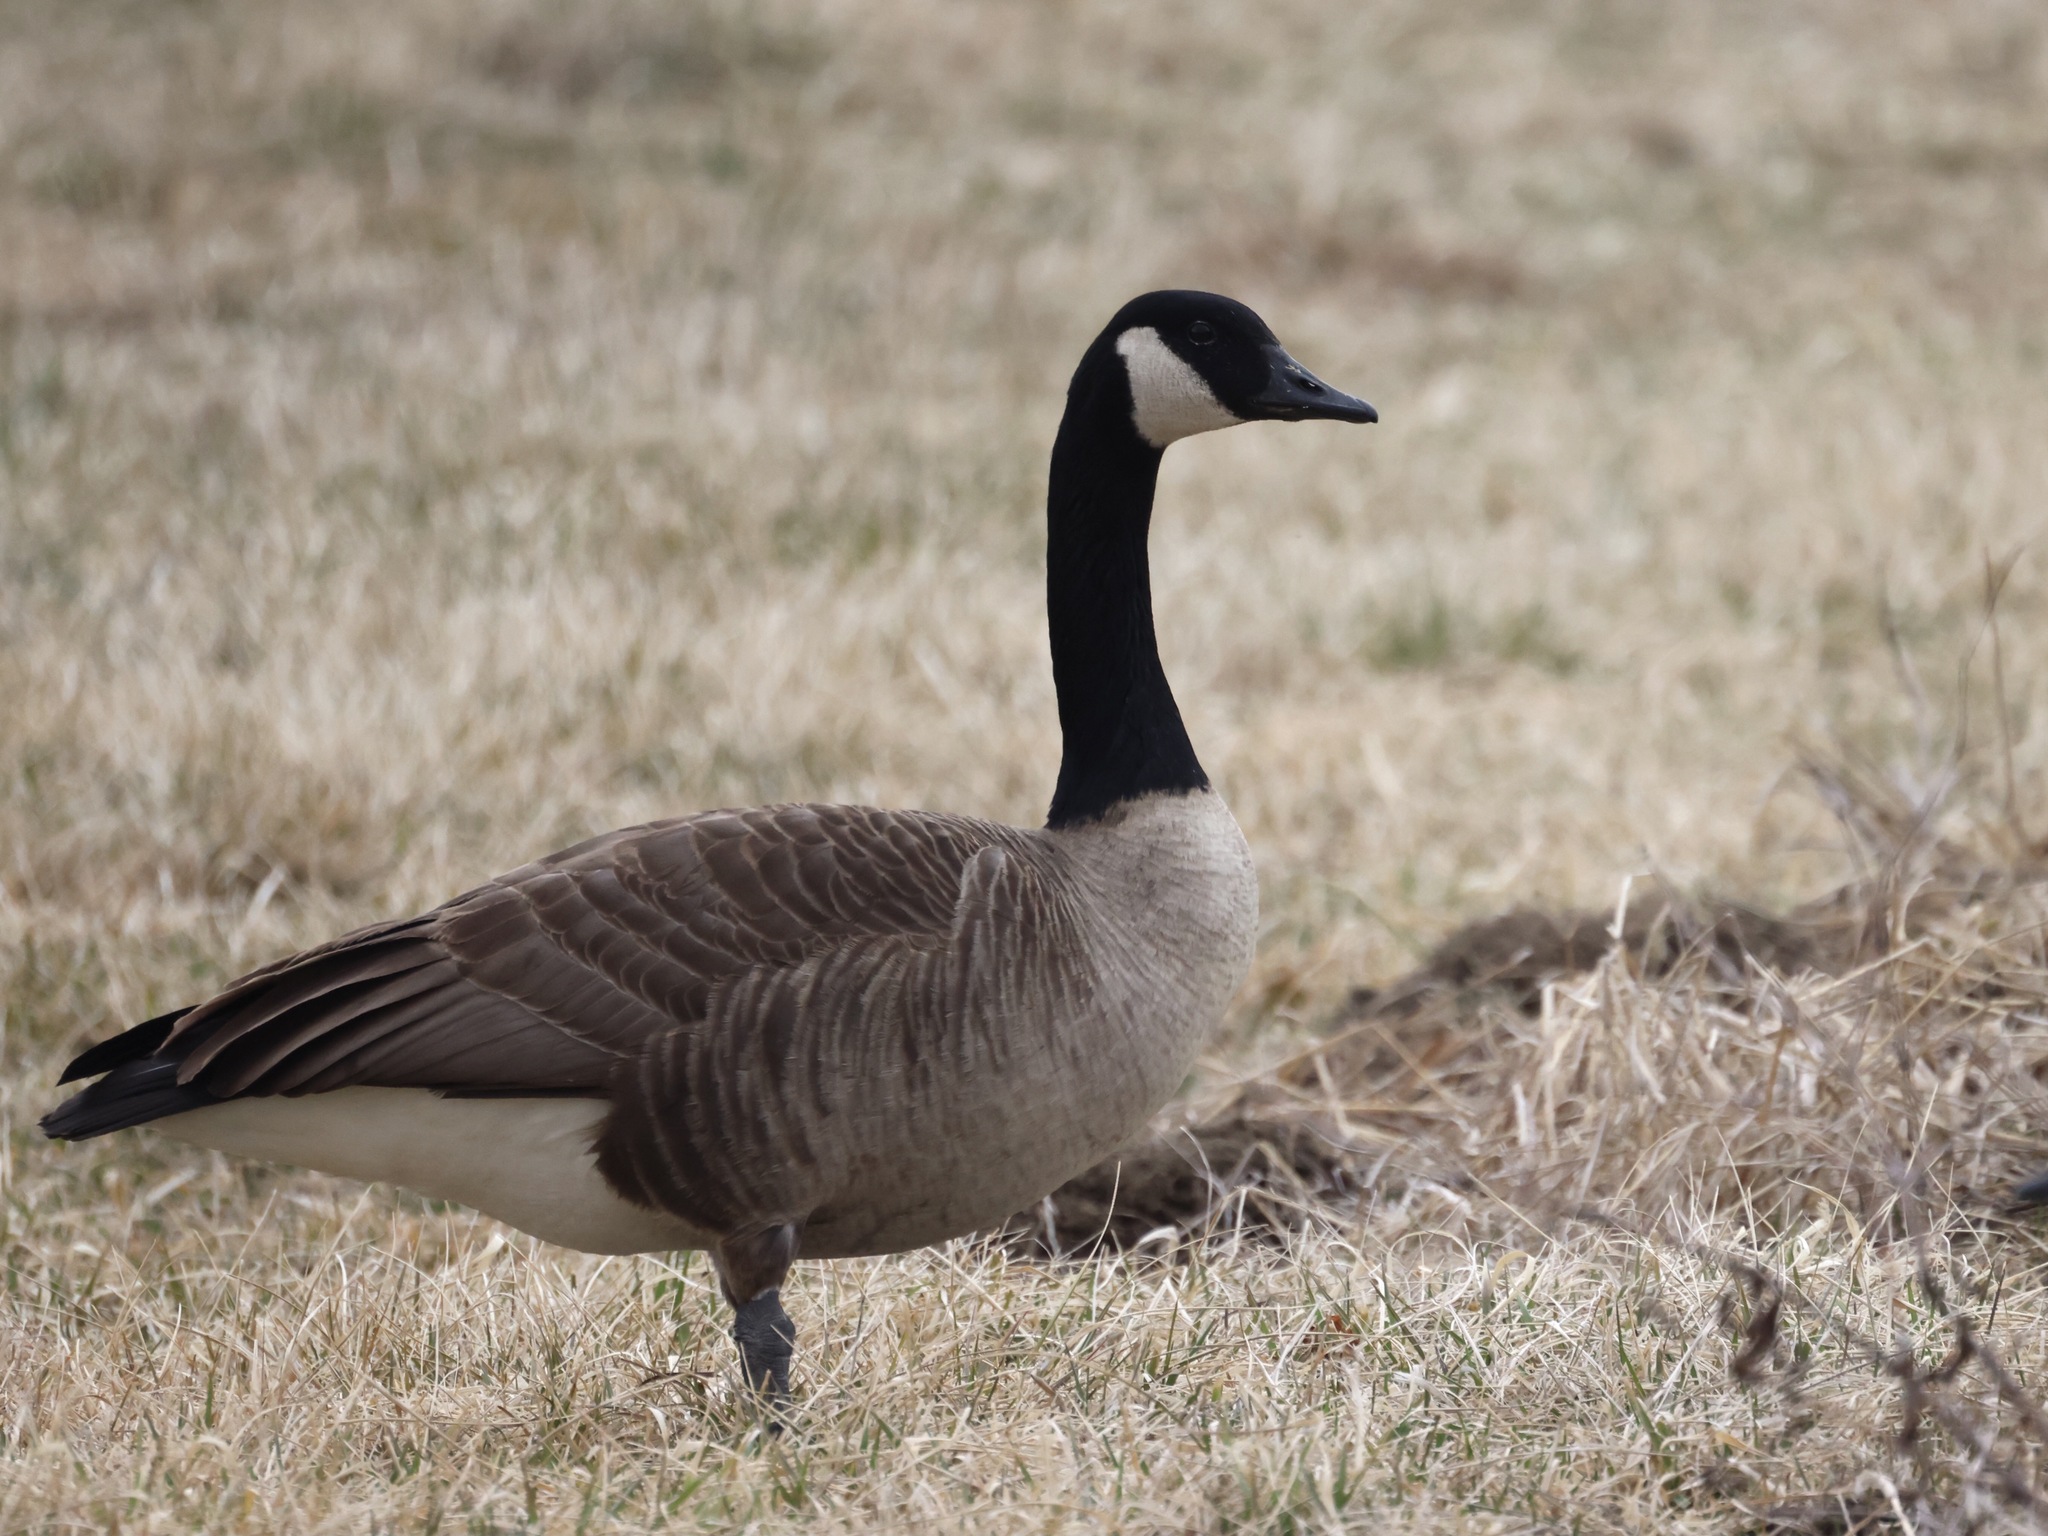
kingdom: Animalia
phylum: Chordata
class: Aves
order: Anseriformes
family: Anatidae
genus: Branta
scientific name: Branta canadensis
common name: Canada goose
